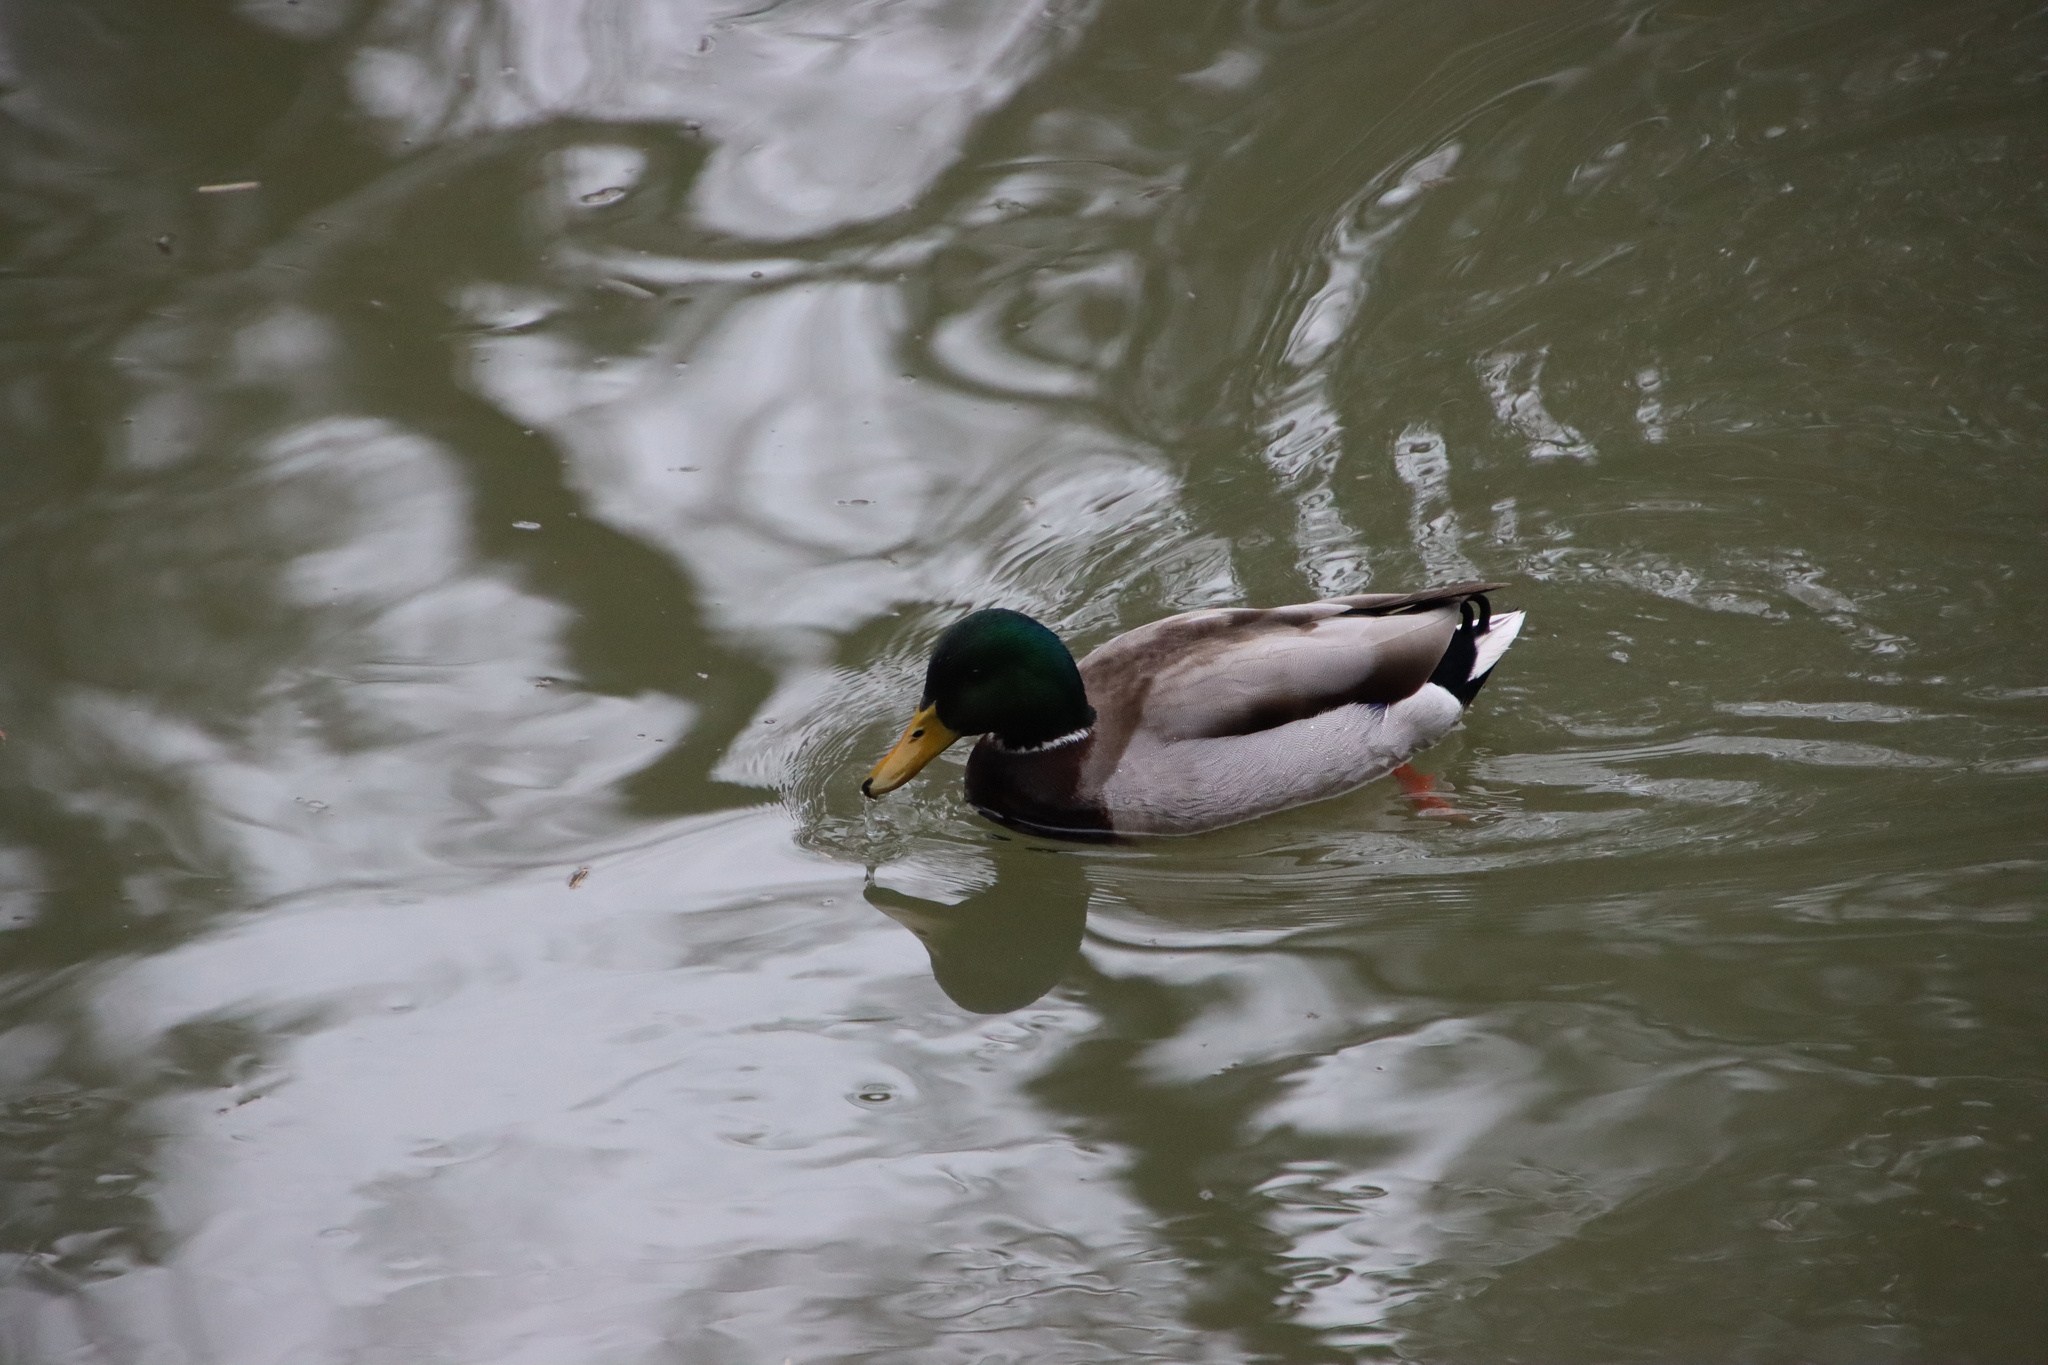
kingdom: Animalia
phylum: Chordata
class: Aves
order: Anseriformes
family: Anatidae
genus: Anas
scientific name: Anas platyrhynchos
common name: Mallard
